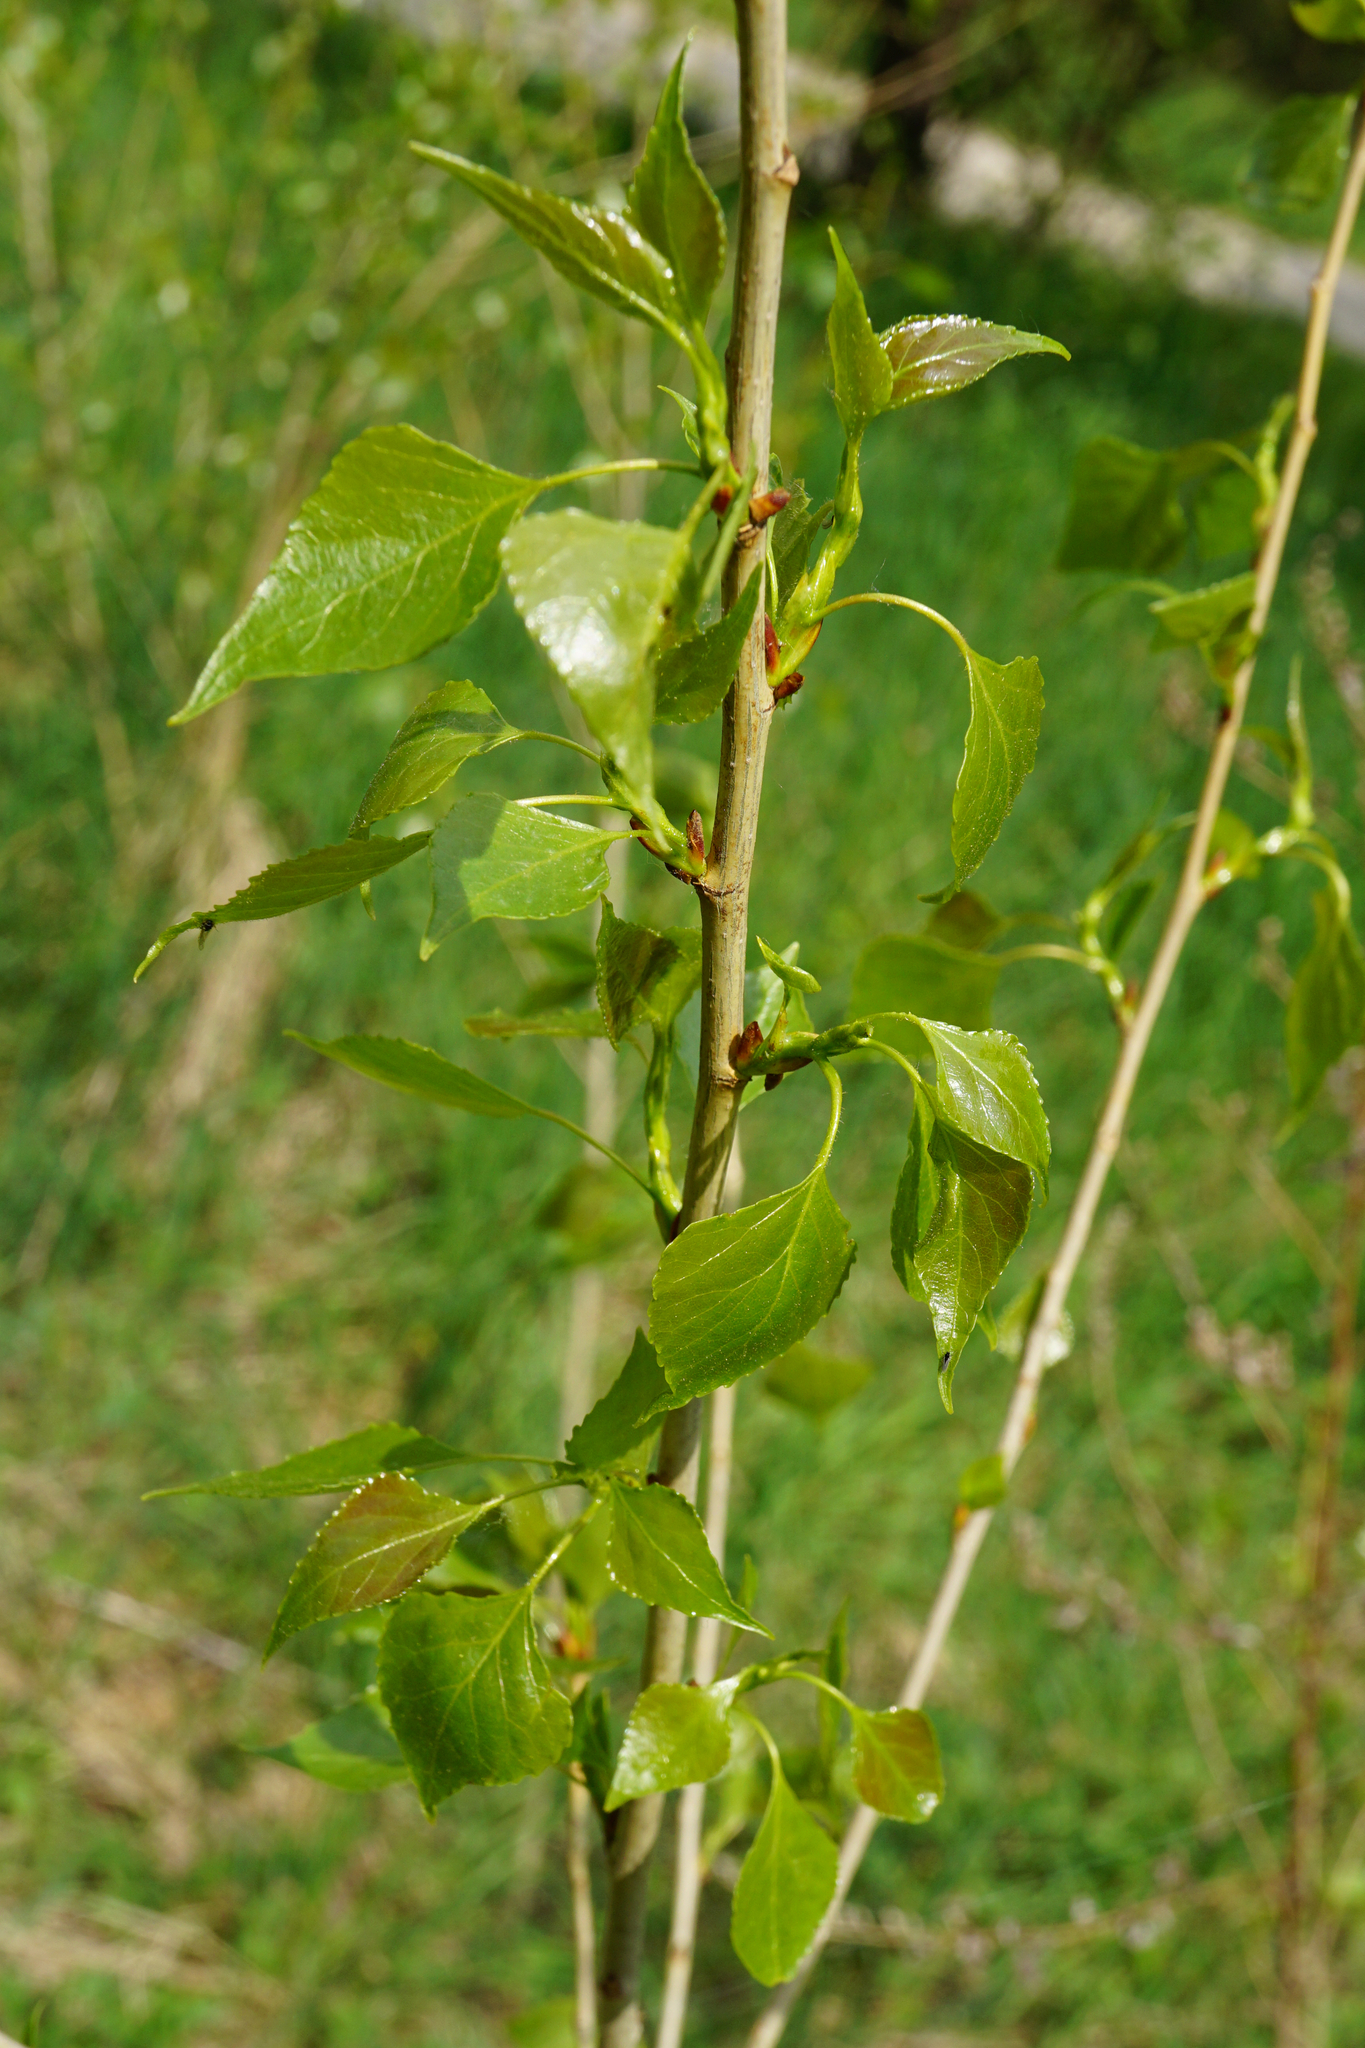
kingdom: Plantae
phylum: Tracheophyta
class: Magnoliopsida
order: Malpighiales
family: Salicaceae
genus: Populus
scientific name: Populus nigra
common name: Black poplar
